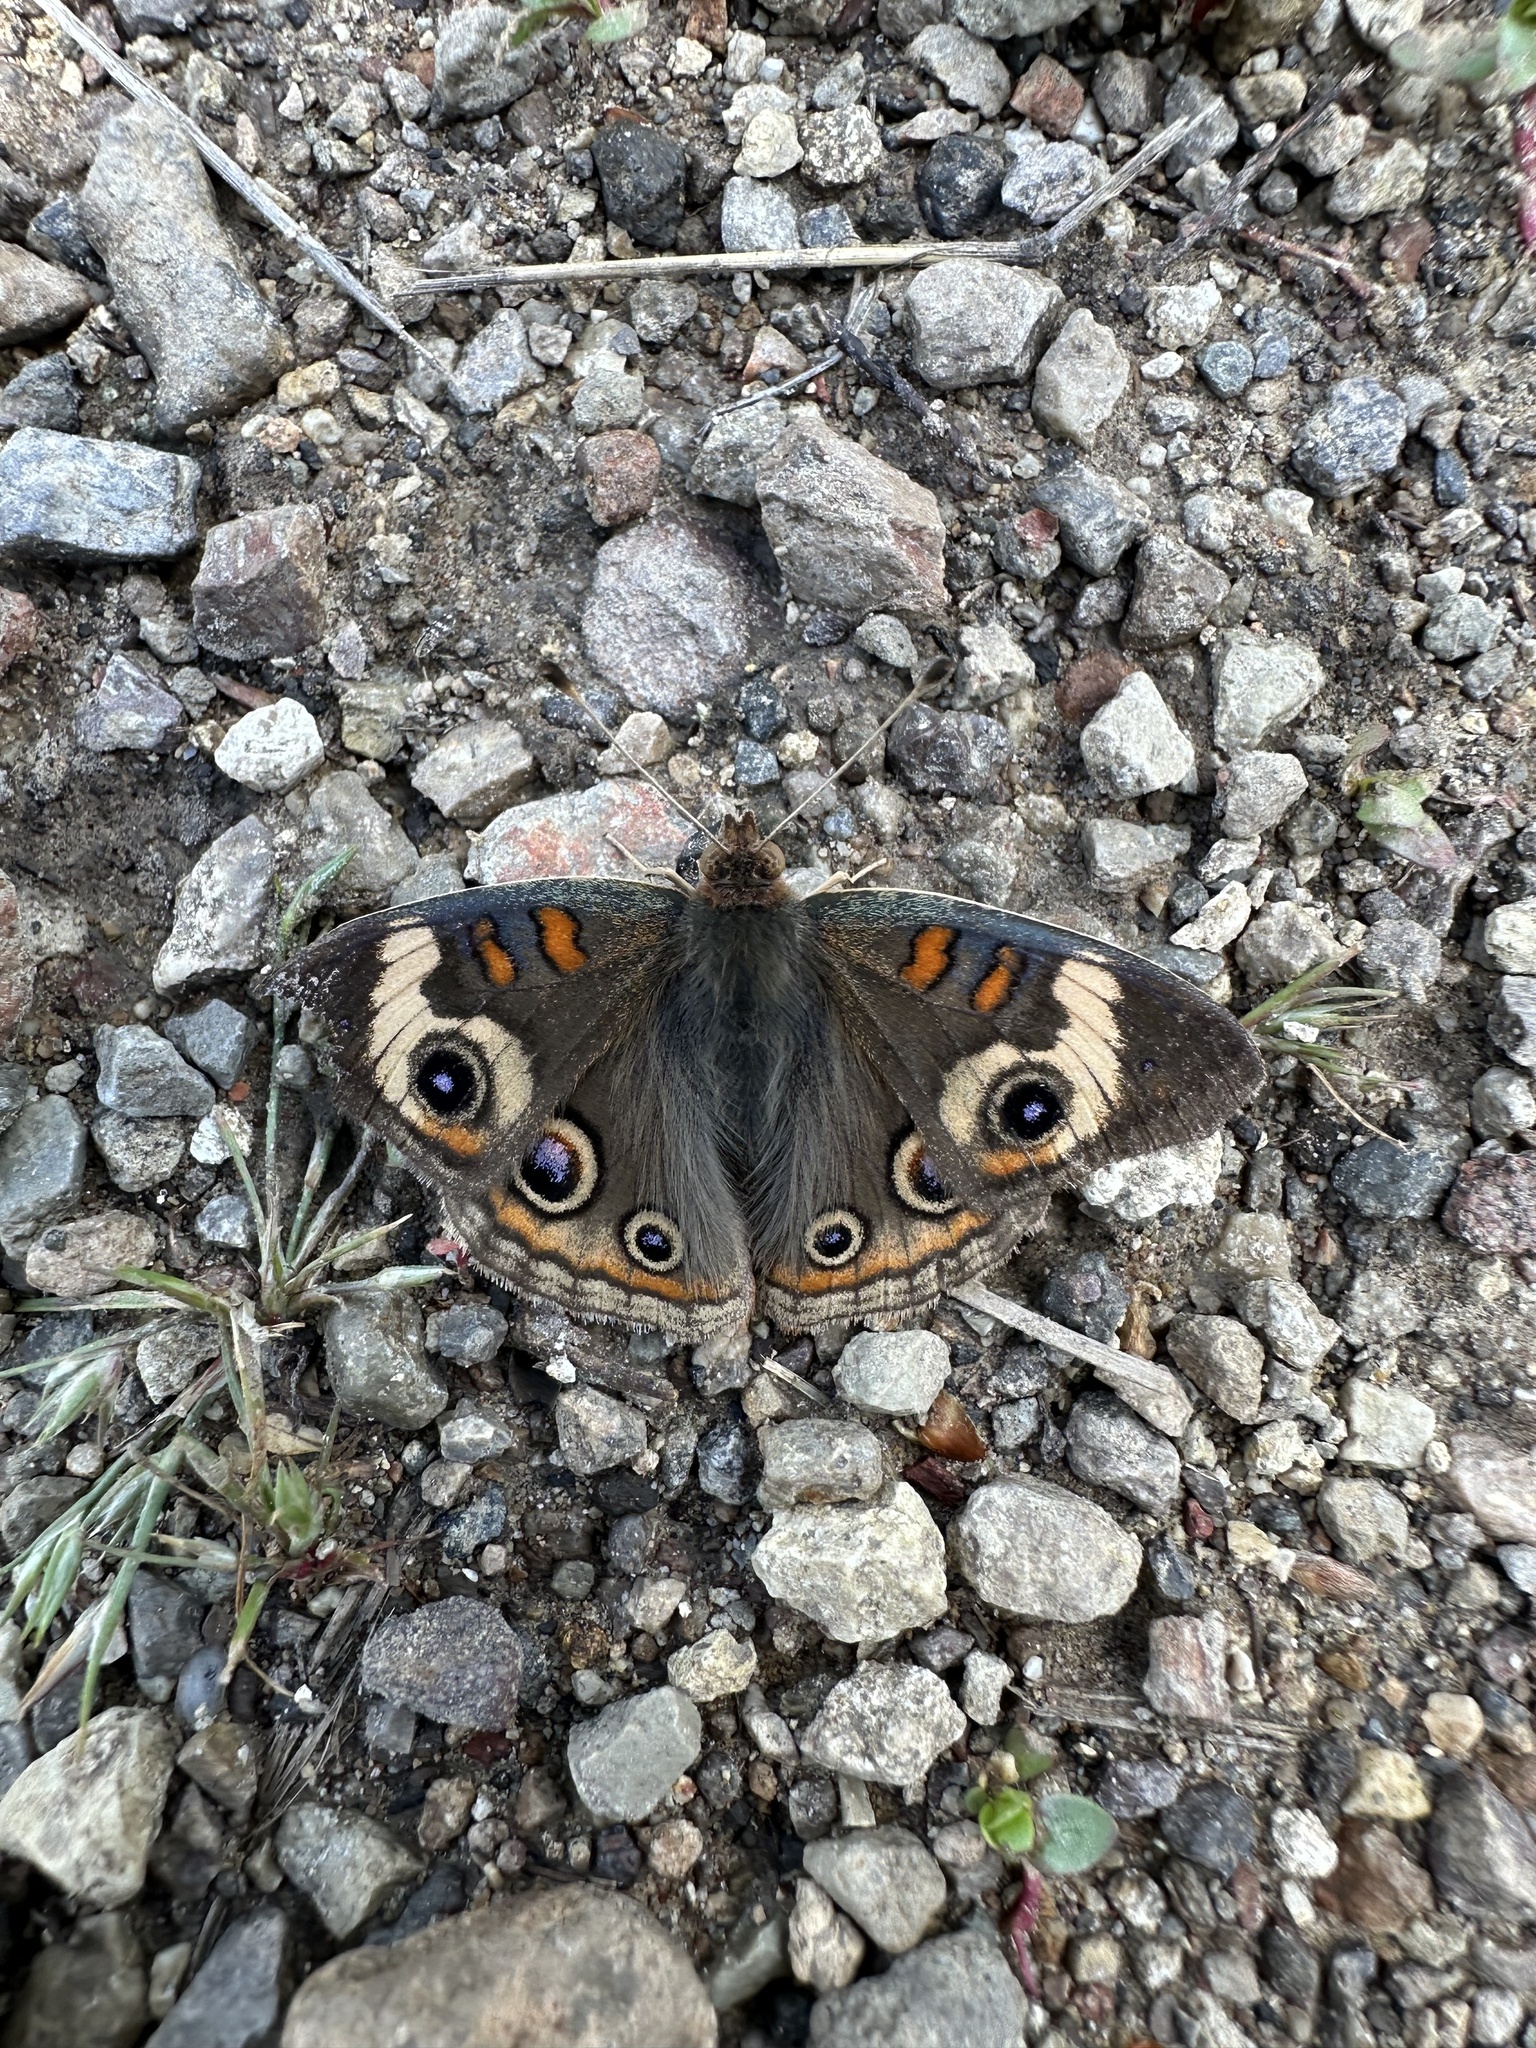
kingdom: Animalia
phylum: Arthropoda
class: Insecta
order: Lepidoptera
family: Nymphalidae
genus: Junonia
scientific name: Junonia grisea
